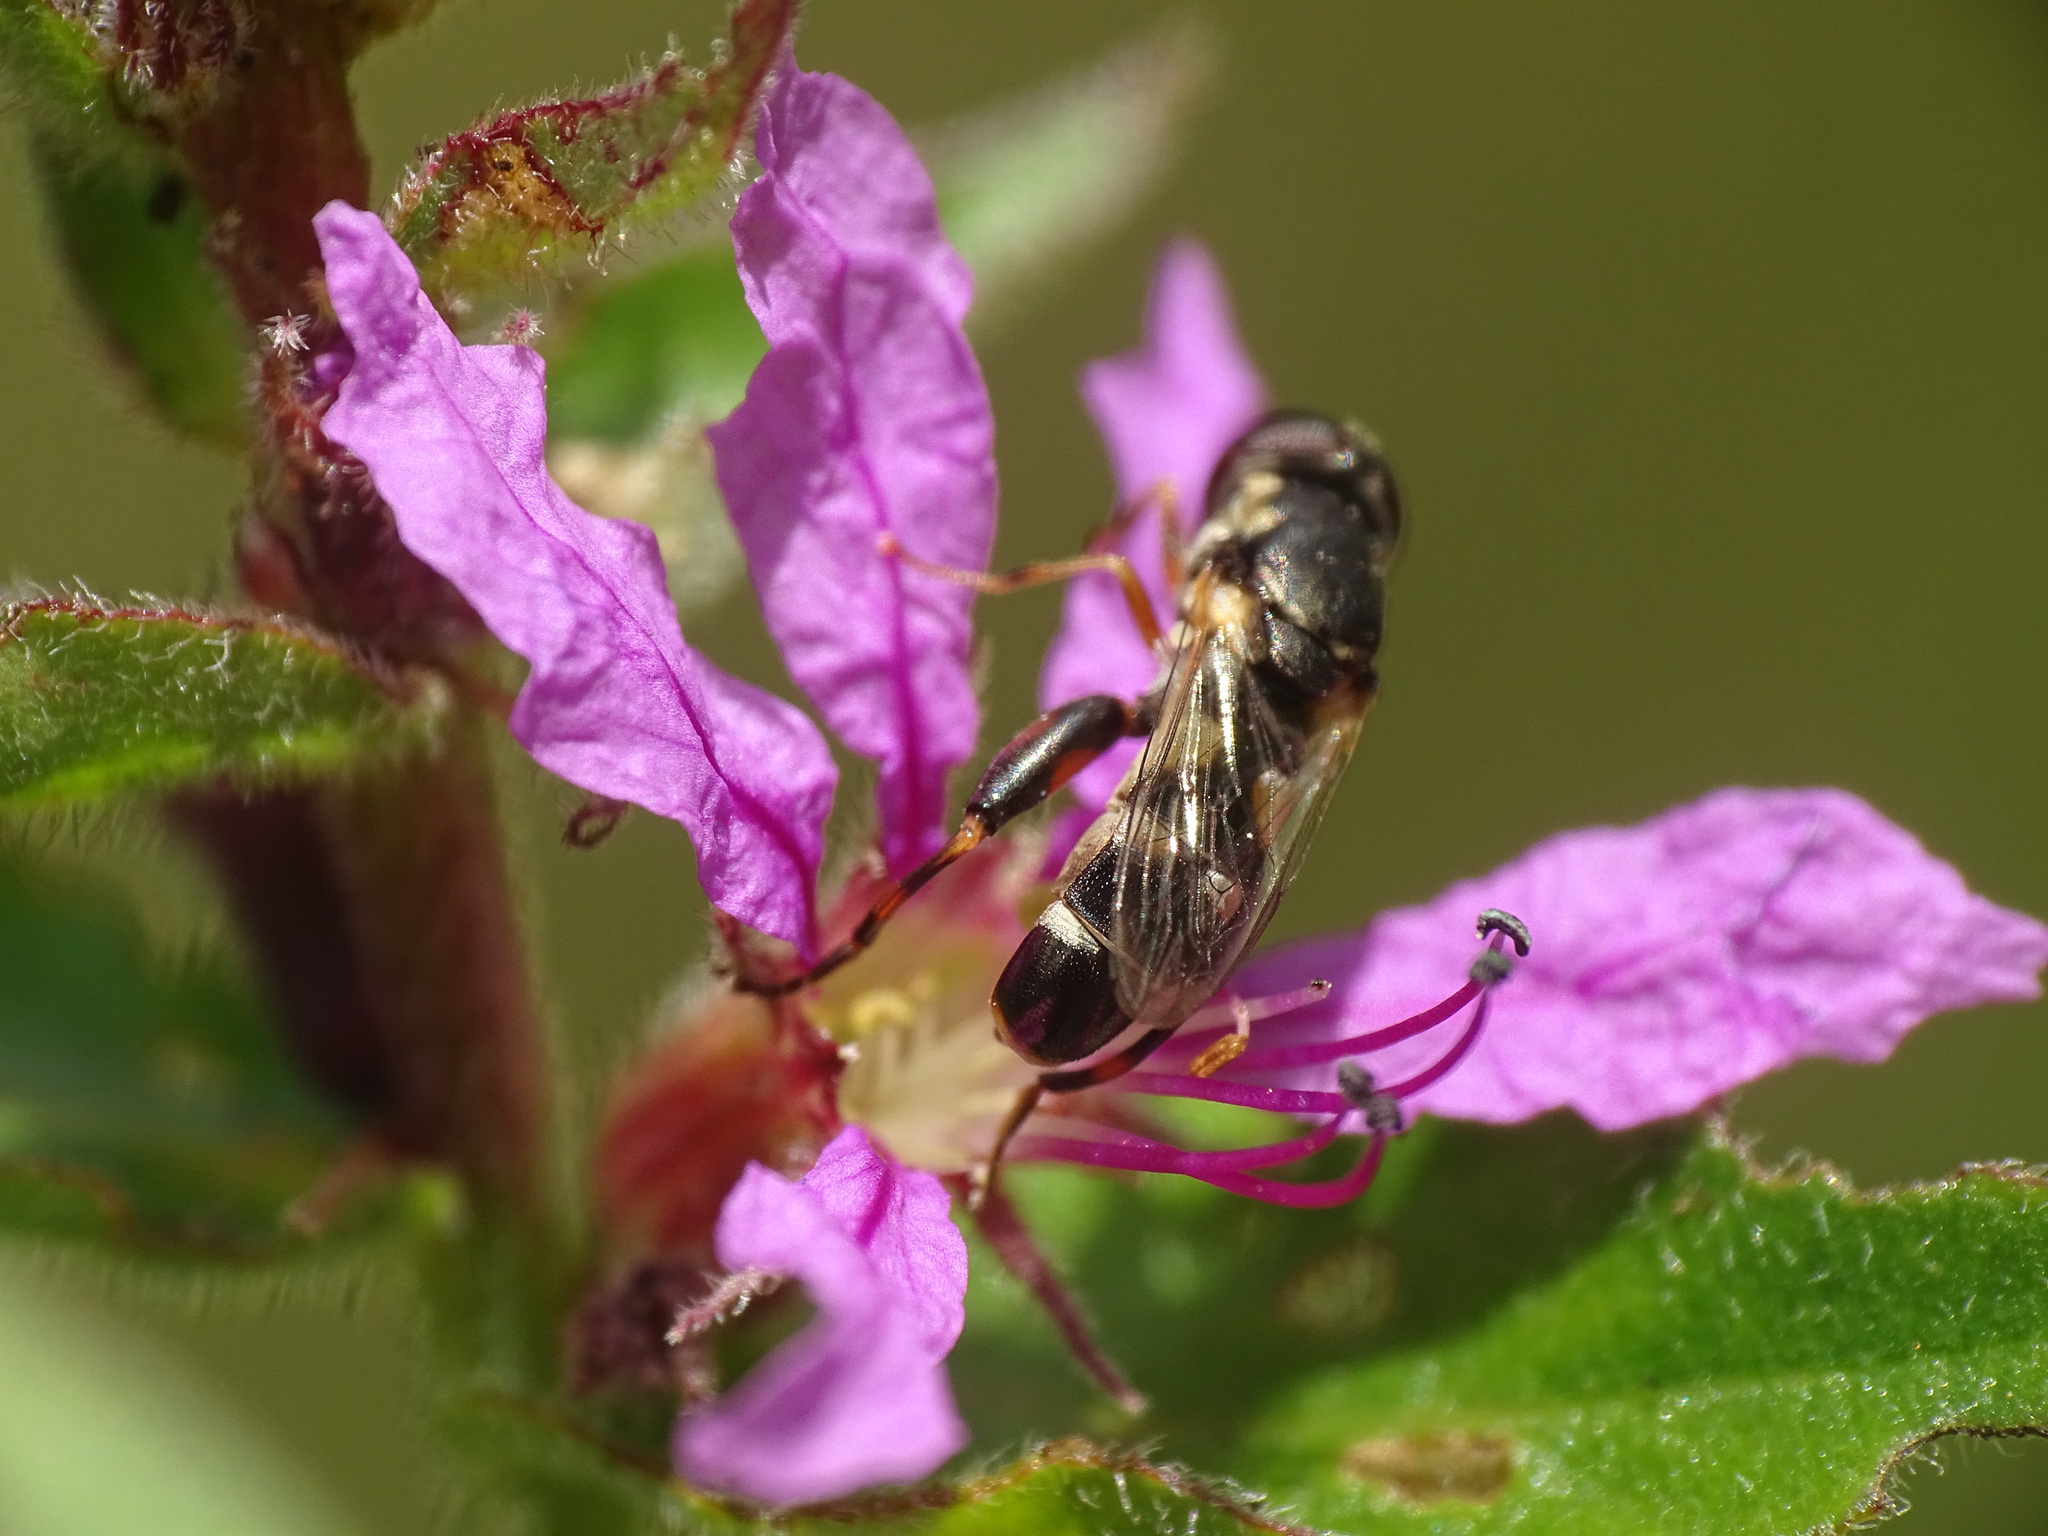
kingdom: Animalia
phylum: Arthropoda
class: Insecta
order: Diptera
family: Syrphidae
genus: Syritta
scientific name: Syritta pipiens
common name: Hover fly
